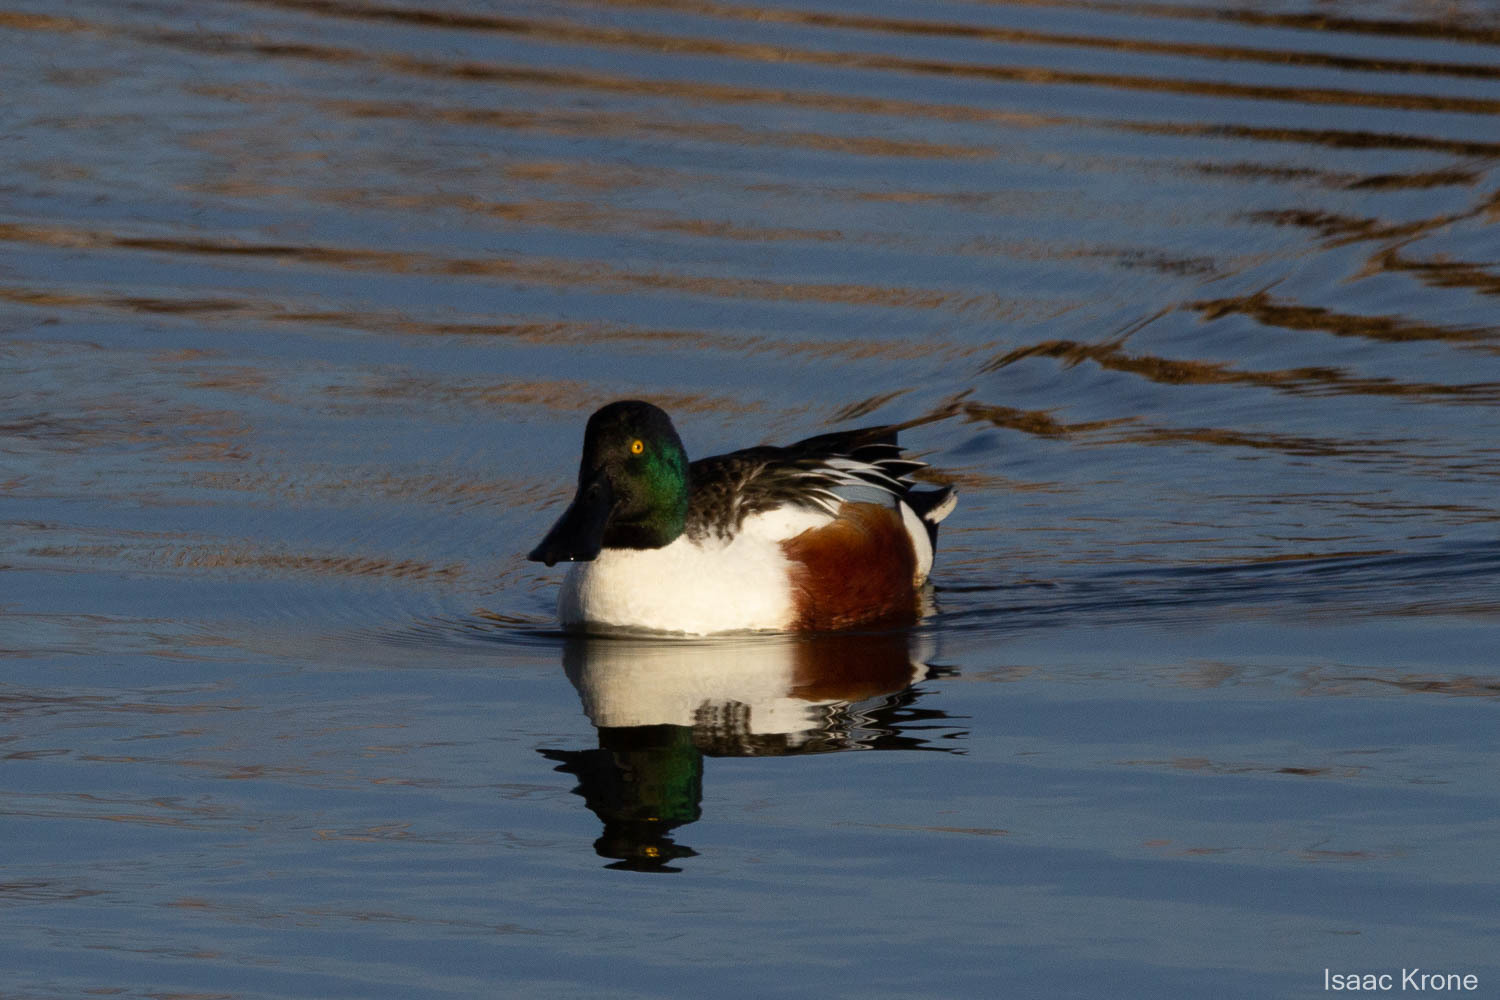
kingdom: Animalia
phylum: Chordata
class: Aves
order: Anseriformes
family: Anatidae
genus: Spatula
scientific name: Spatula clypeata
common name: Northern shoveler
